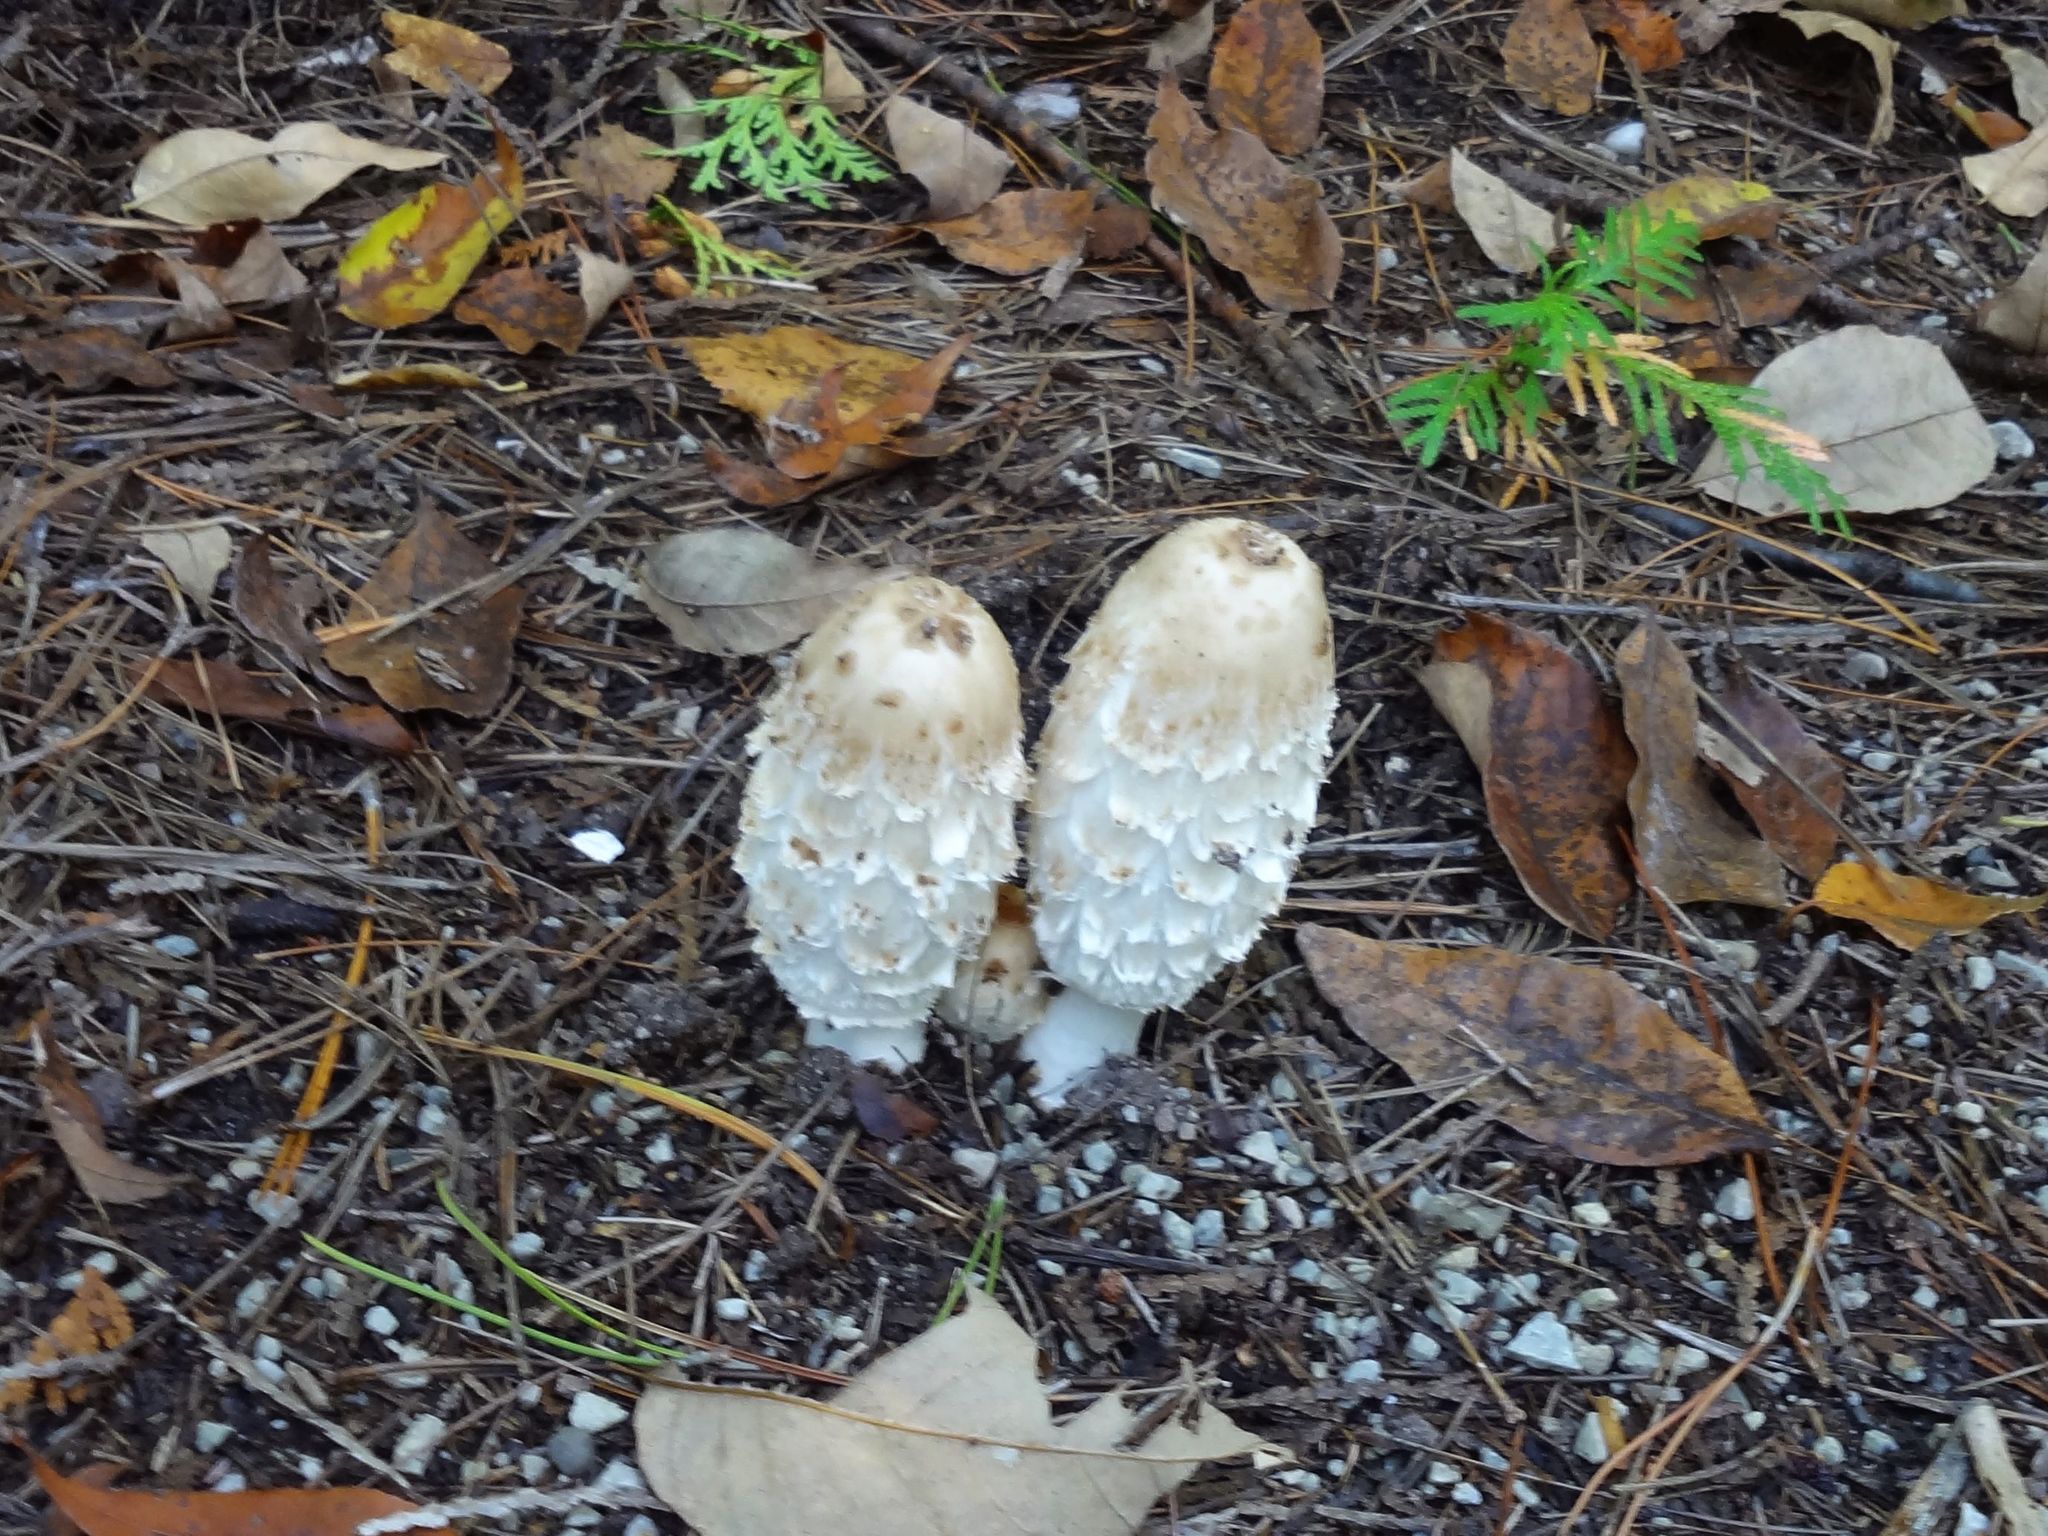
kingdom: Fungi
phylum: Basidiomycota
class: Agaricomycetes
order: Agaricales
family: Agaricaceae
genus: Coprinus
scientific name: Coprinus comatus
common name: Lawyer's wig
